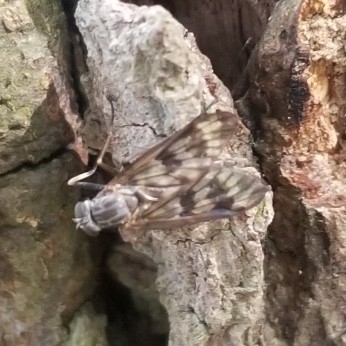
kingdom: Animalia
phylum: Arthropoda
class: Insecta
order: Diptera
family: Rhagionidae
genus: Rhagio
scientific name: Rhagio mystaceus
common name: Common snipe fly
